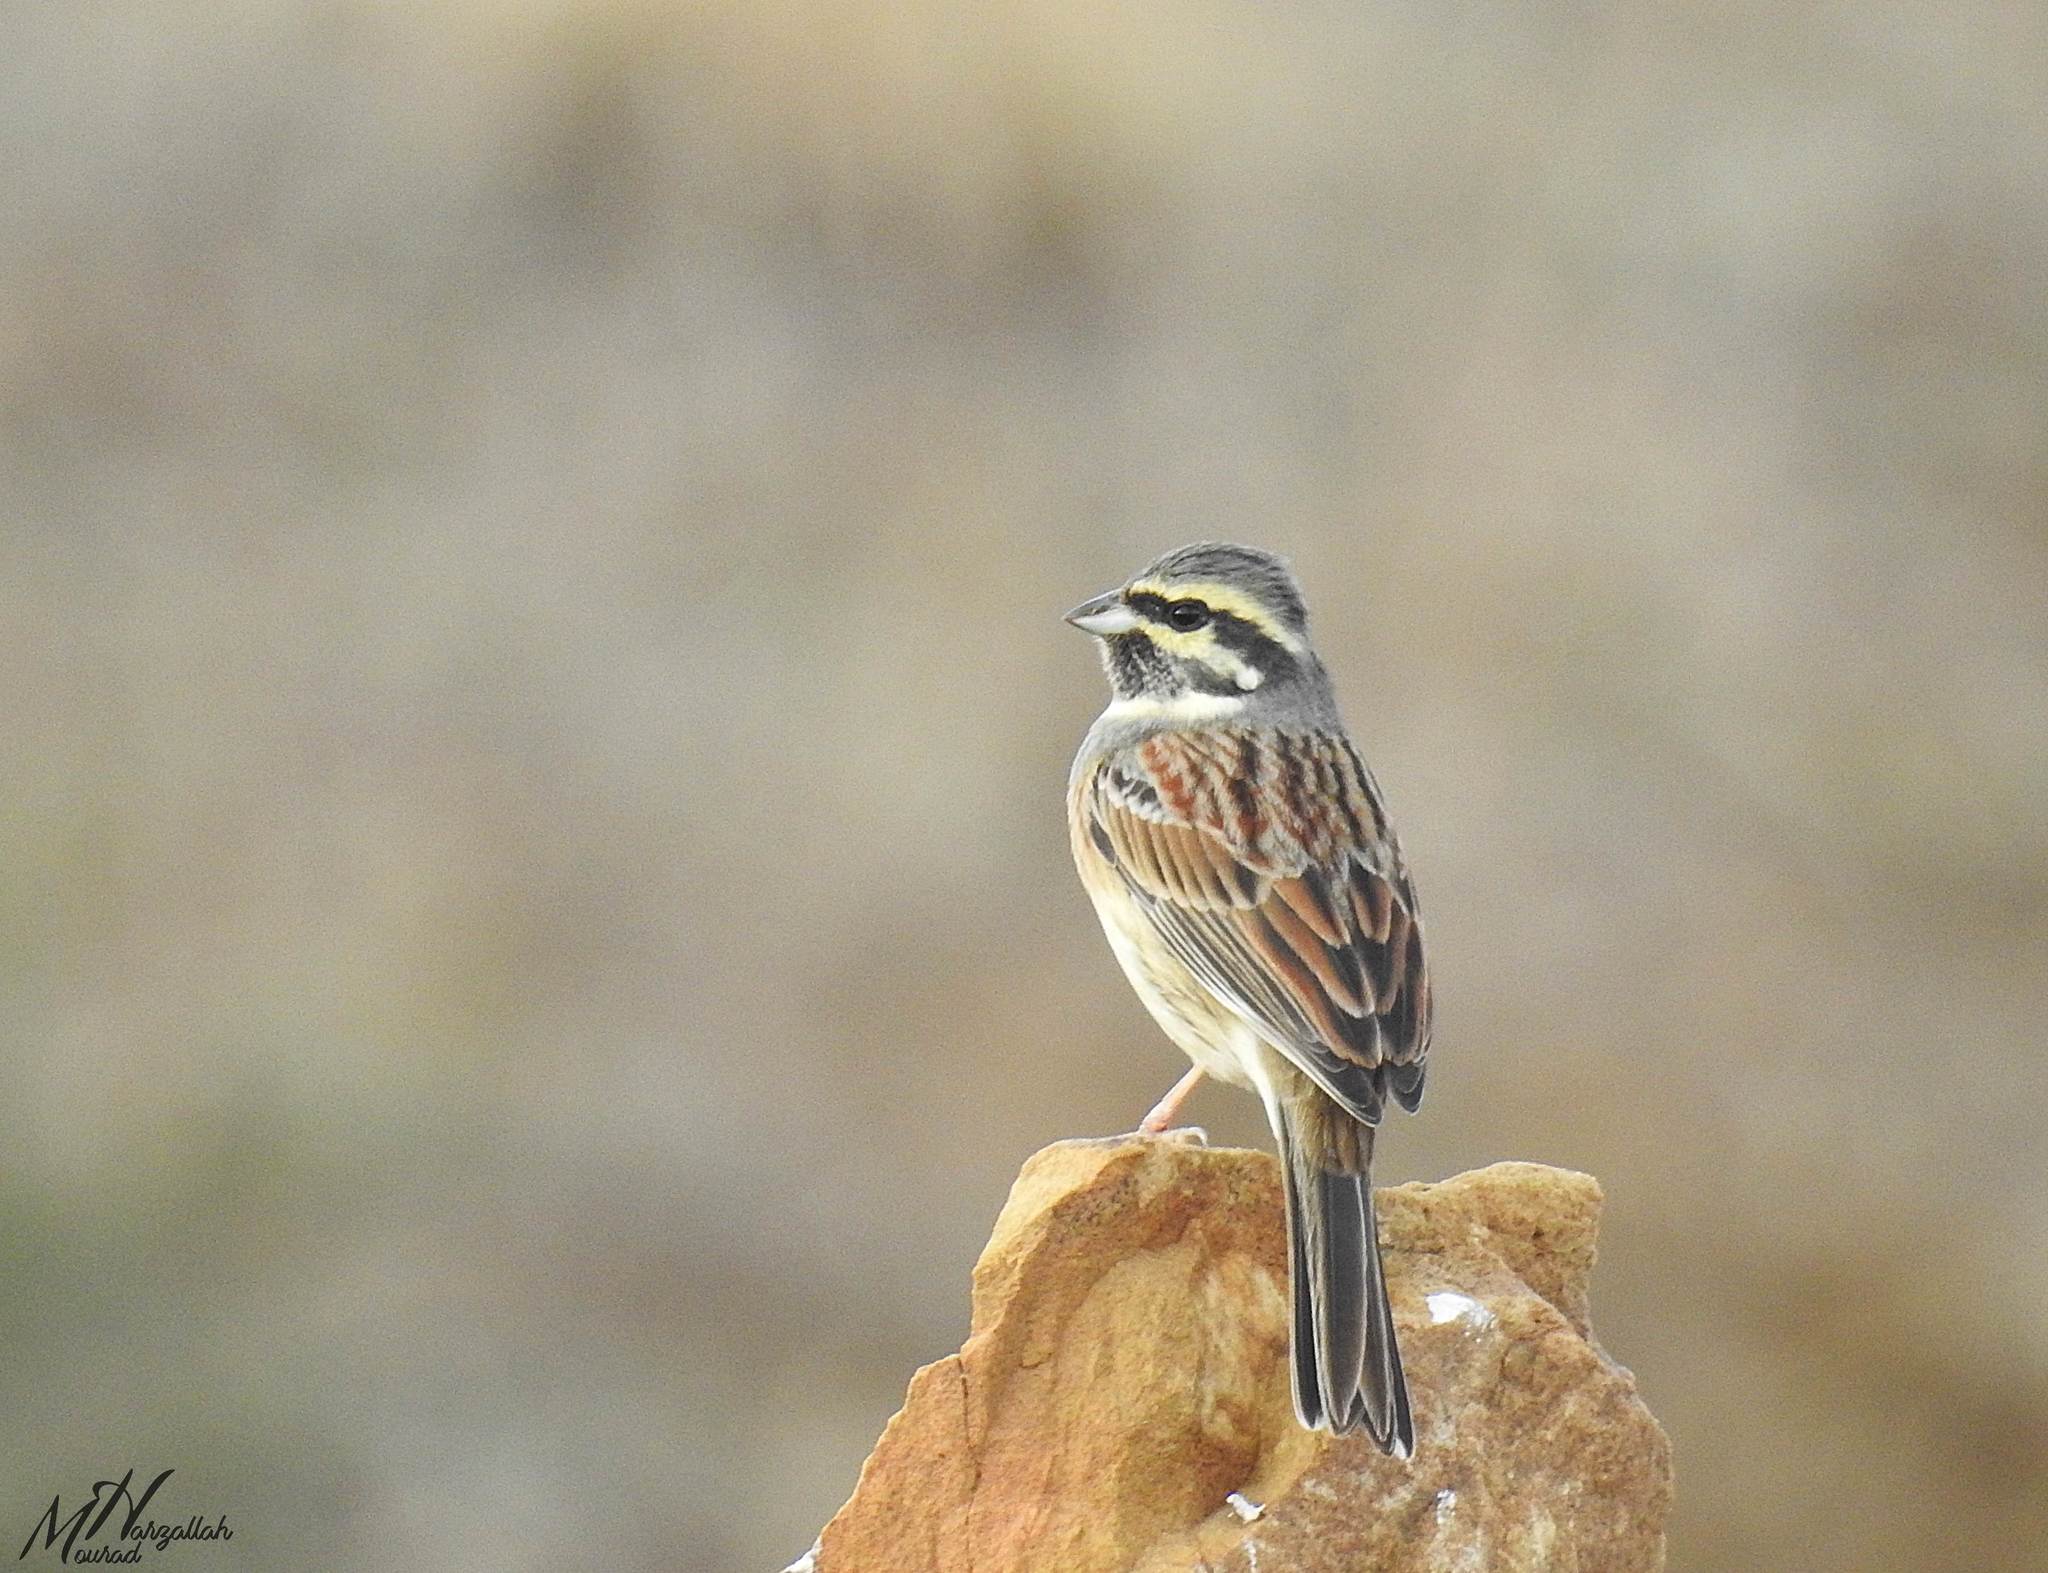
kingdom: Animalia
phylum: Chordata
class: Aves
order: Passeriformes
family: Emberizidae
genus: Emberiza
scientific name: Emberiza cirlus
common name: Cirl bunting
